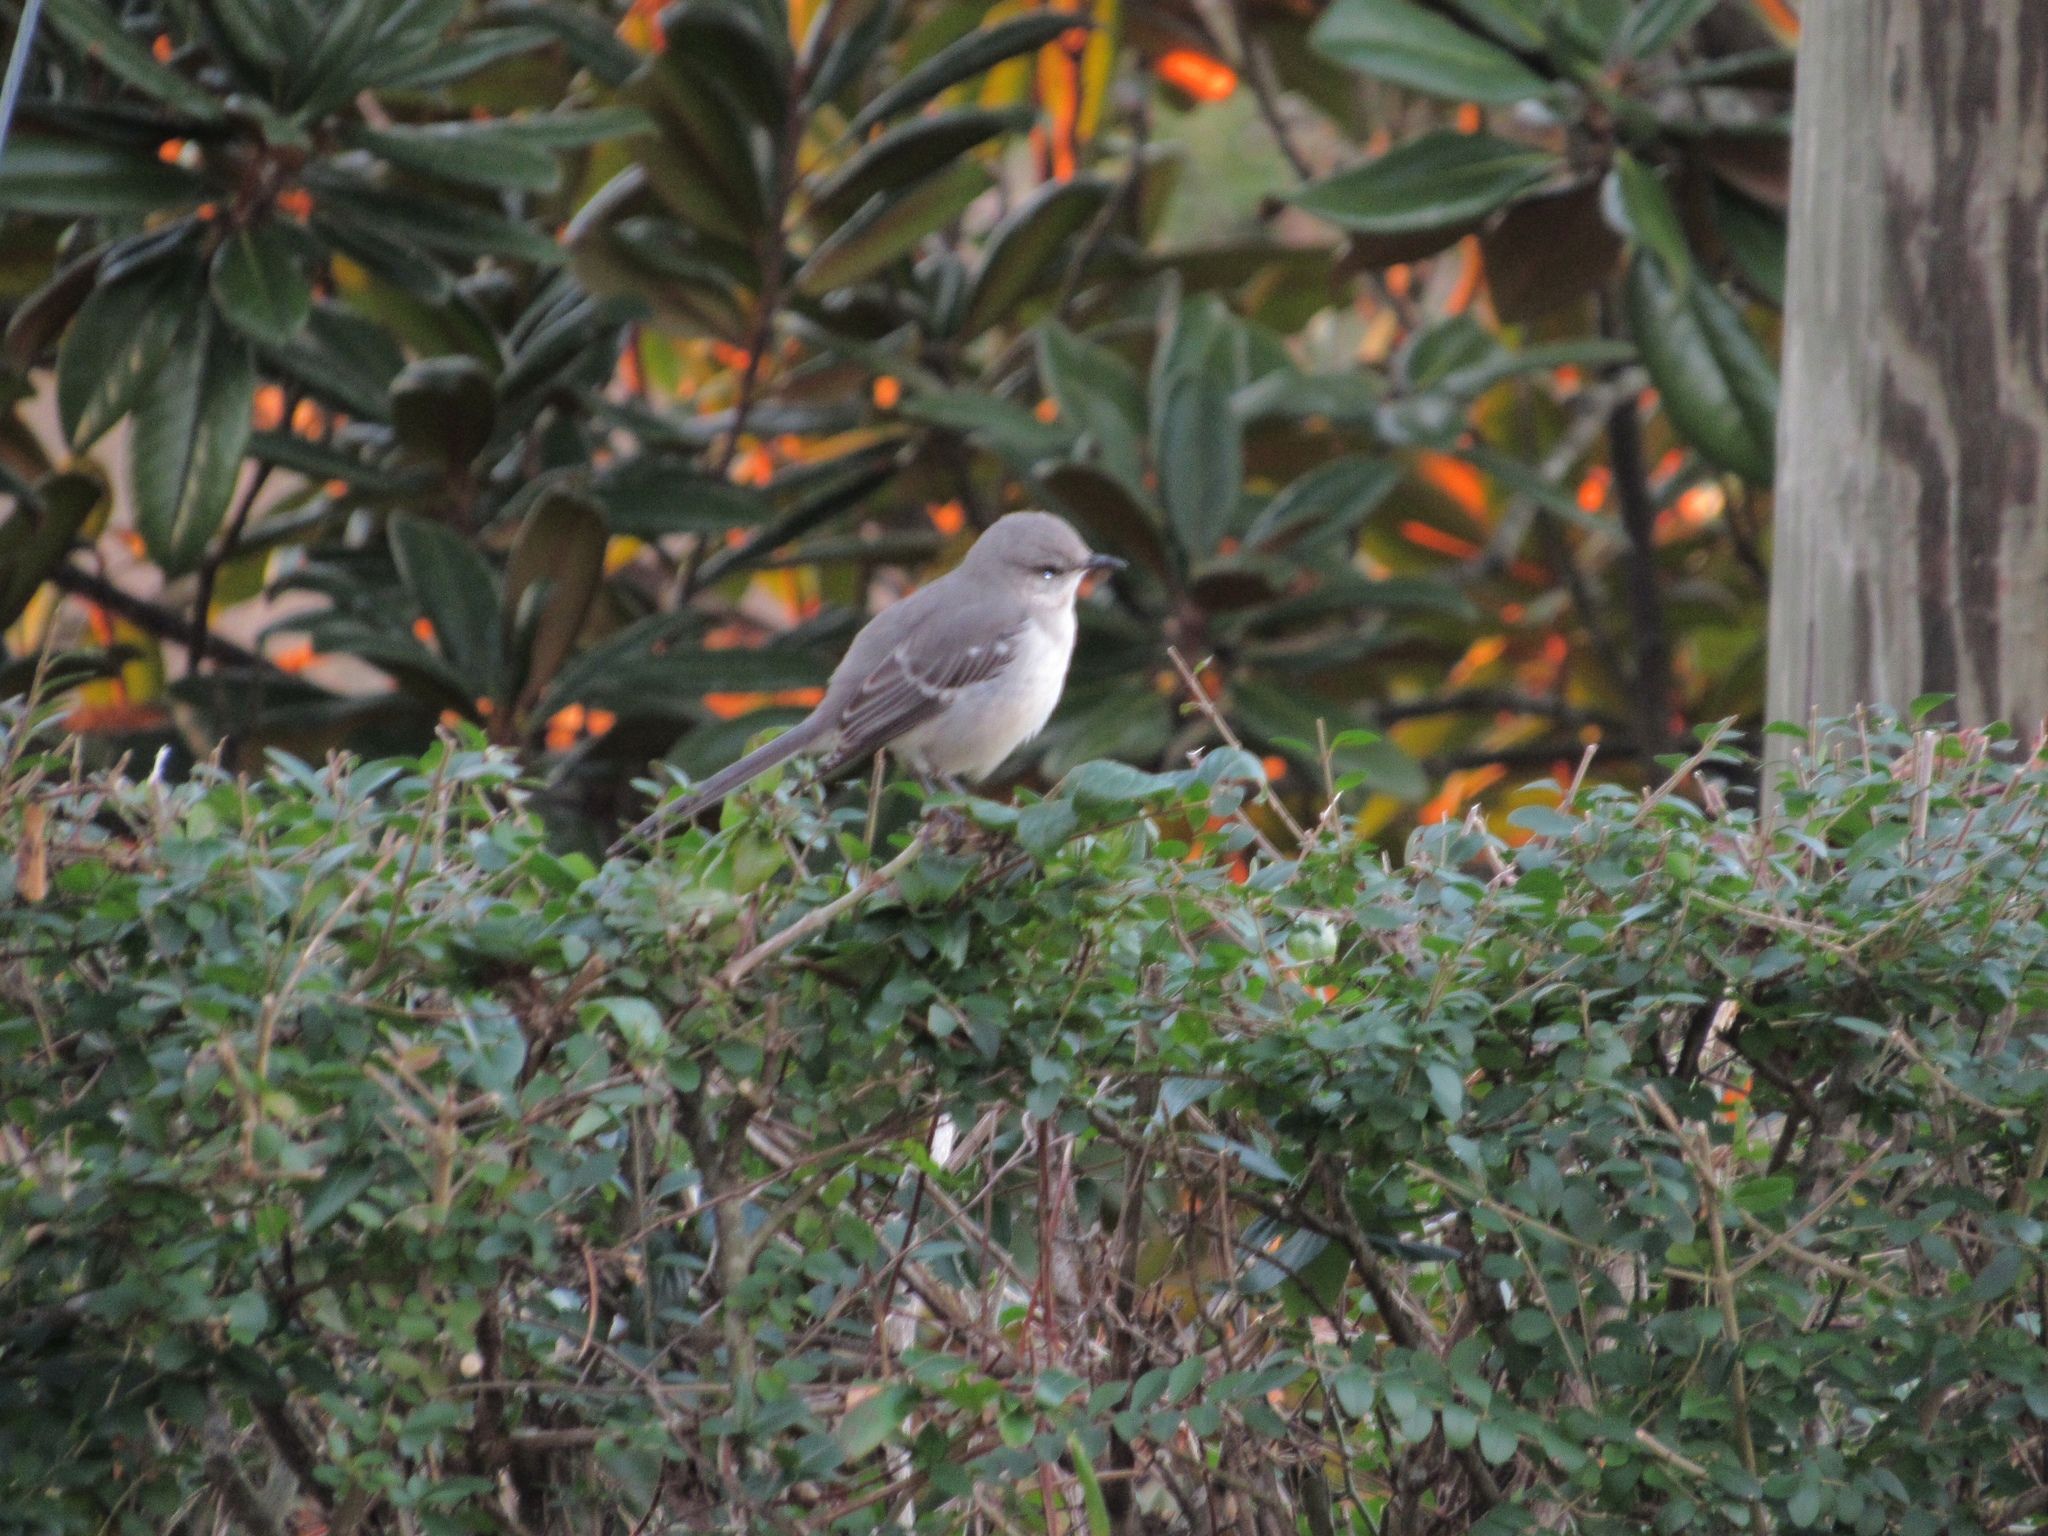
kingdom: Animalia
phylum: Chordata
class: Aves
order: Passeriformes
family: Mimidae
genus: Mimus
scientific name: Mimus polyglottos
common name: Northern mockingbird
